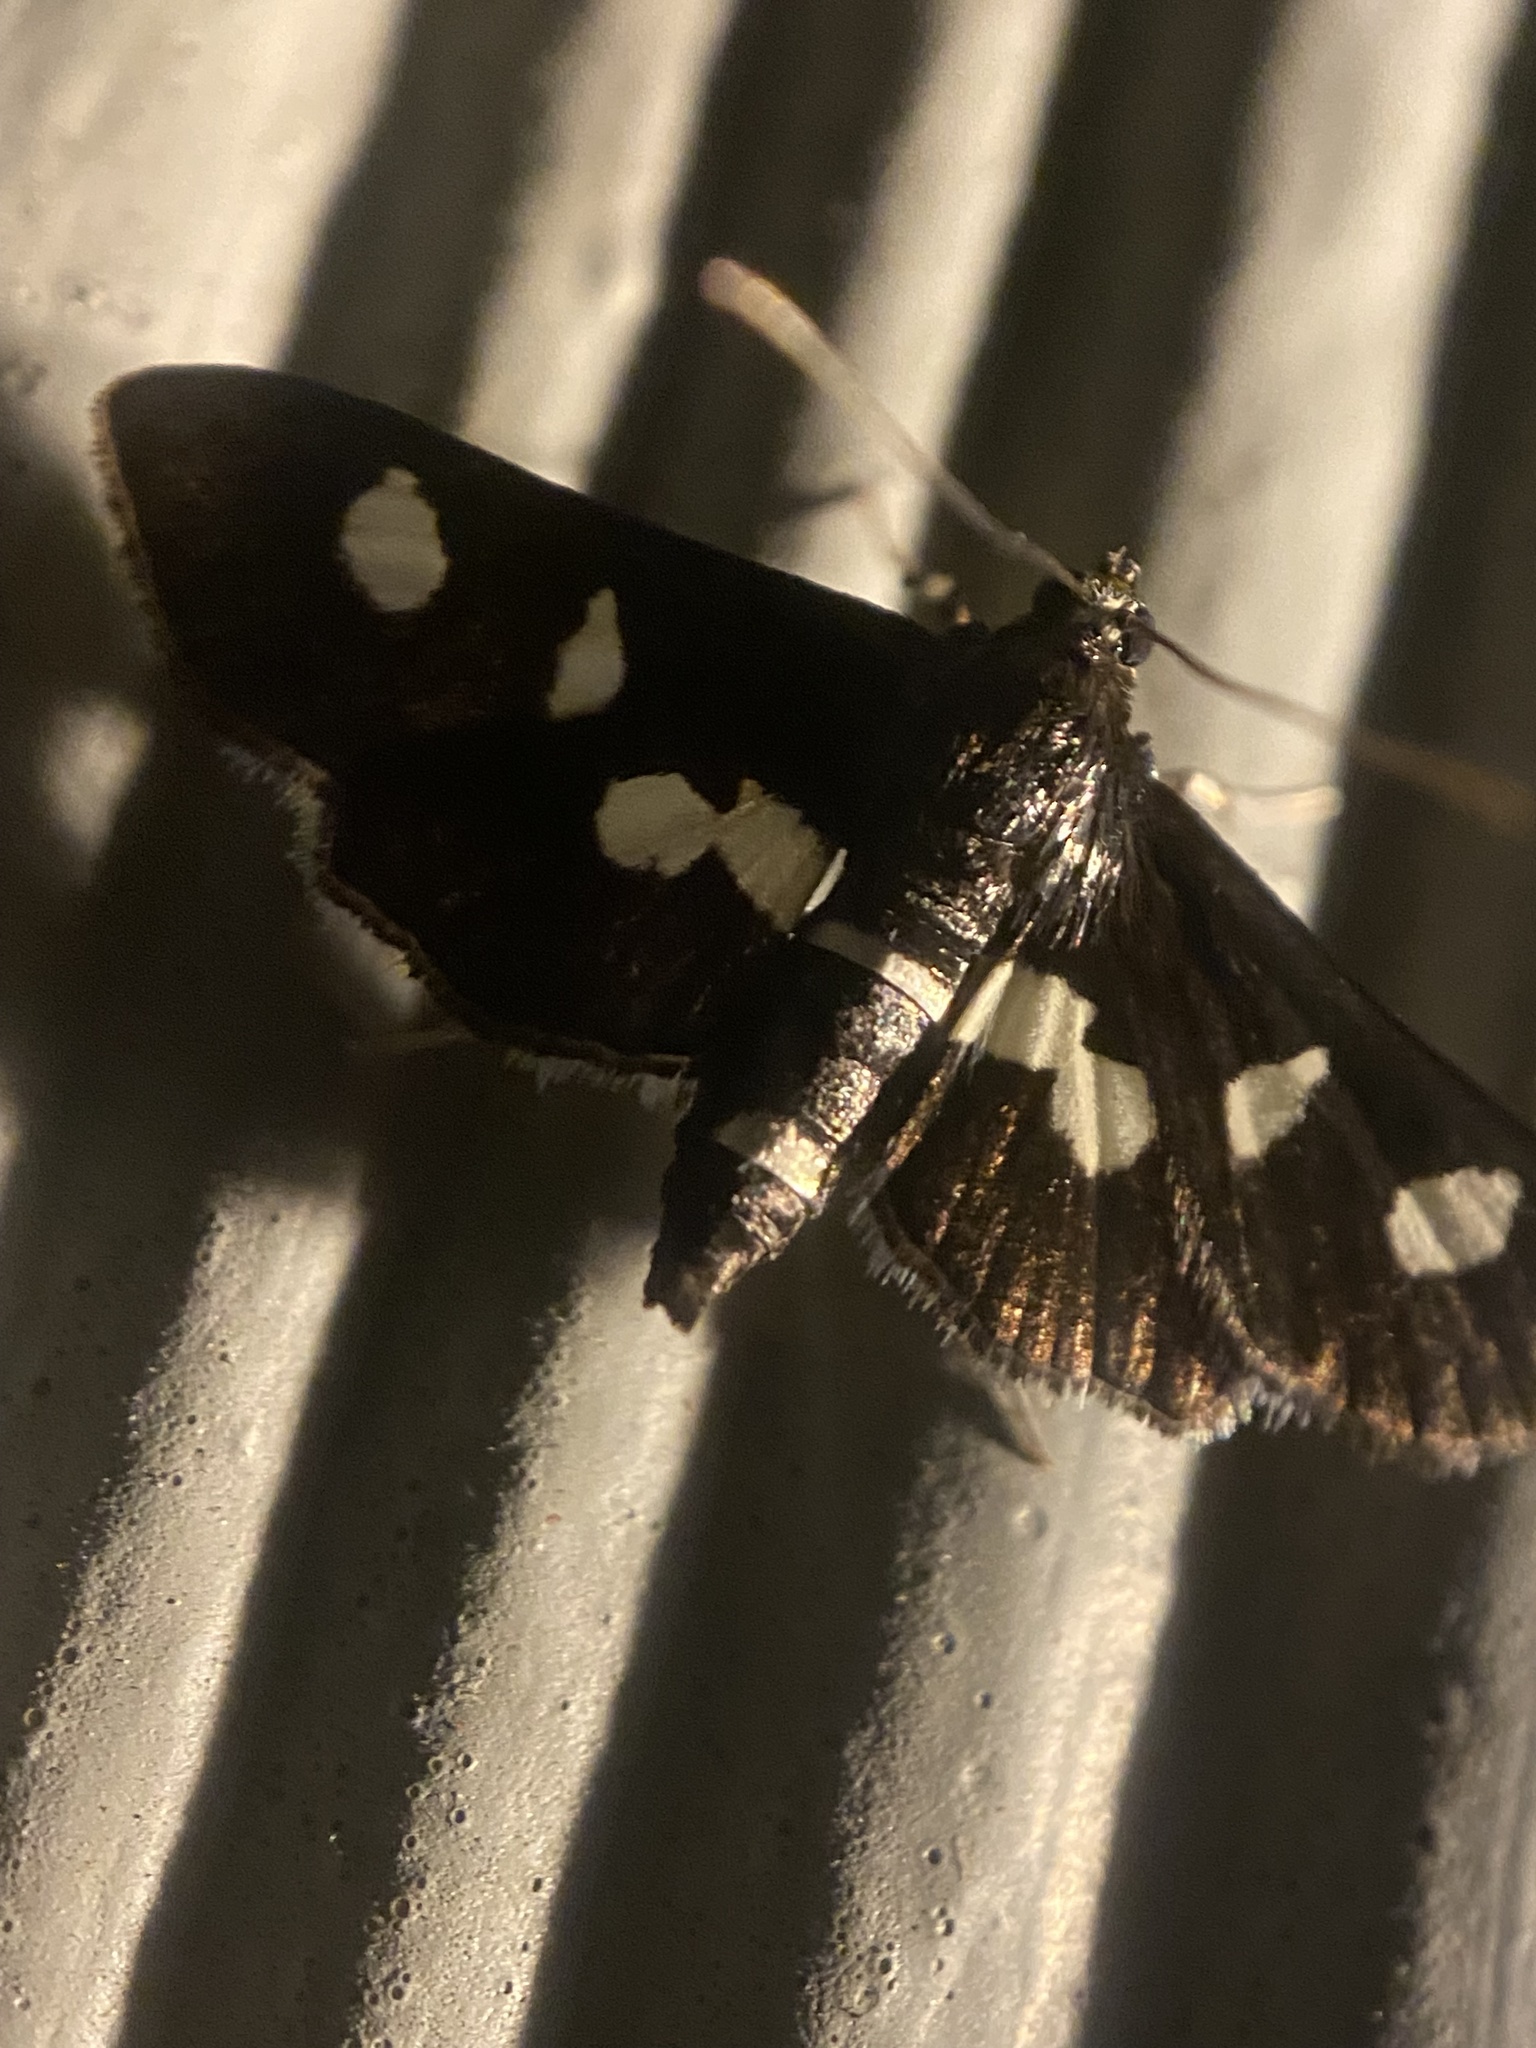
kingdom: Animalia
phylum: Arthropoda
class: Insecta
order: Lepidoptera
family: Crambidae
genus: Desmia
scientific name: Desmia
